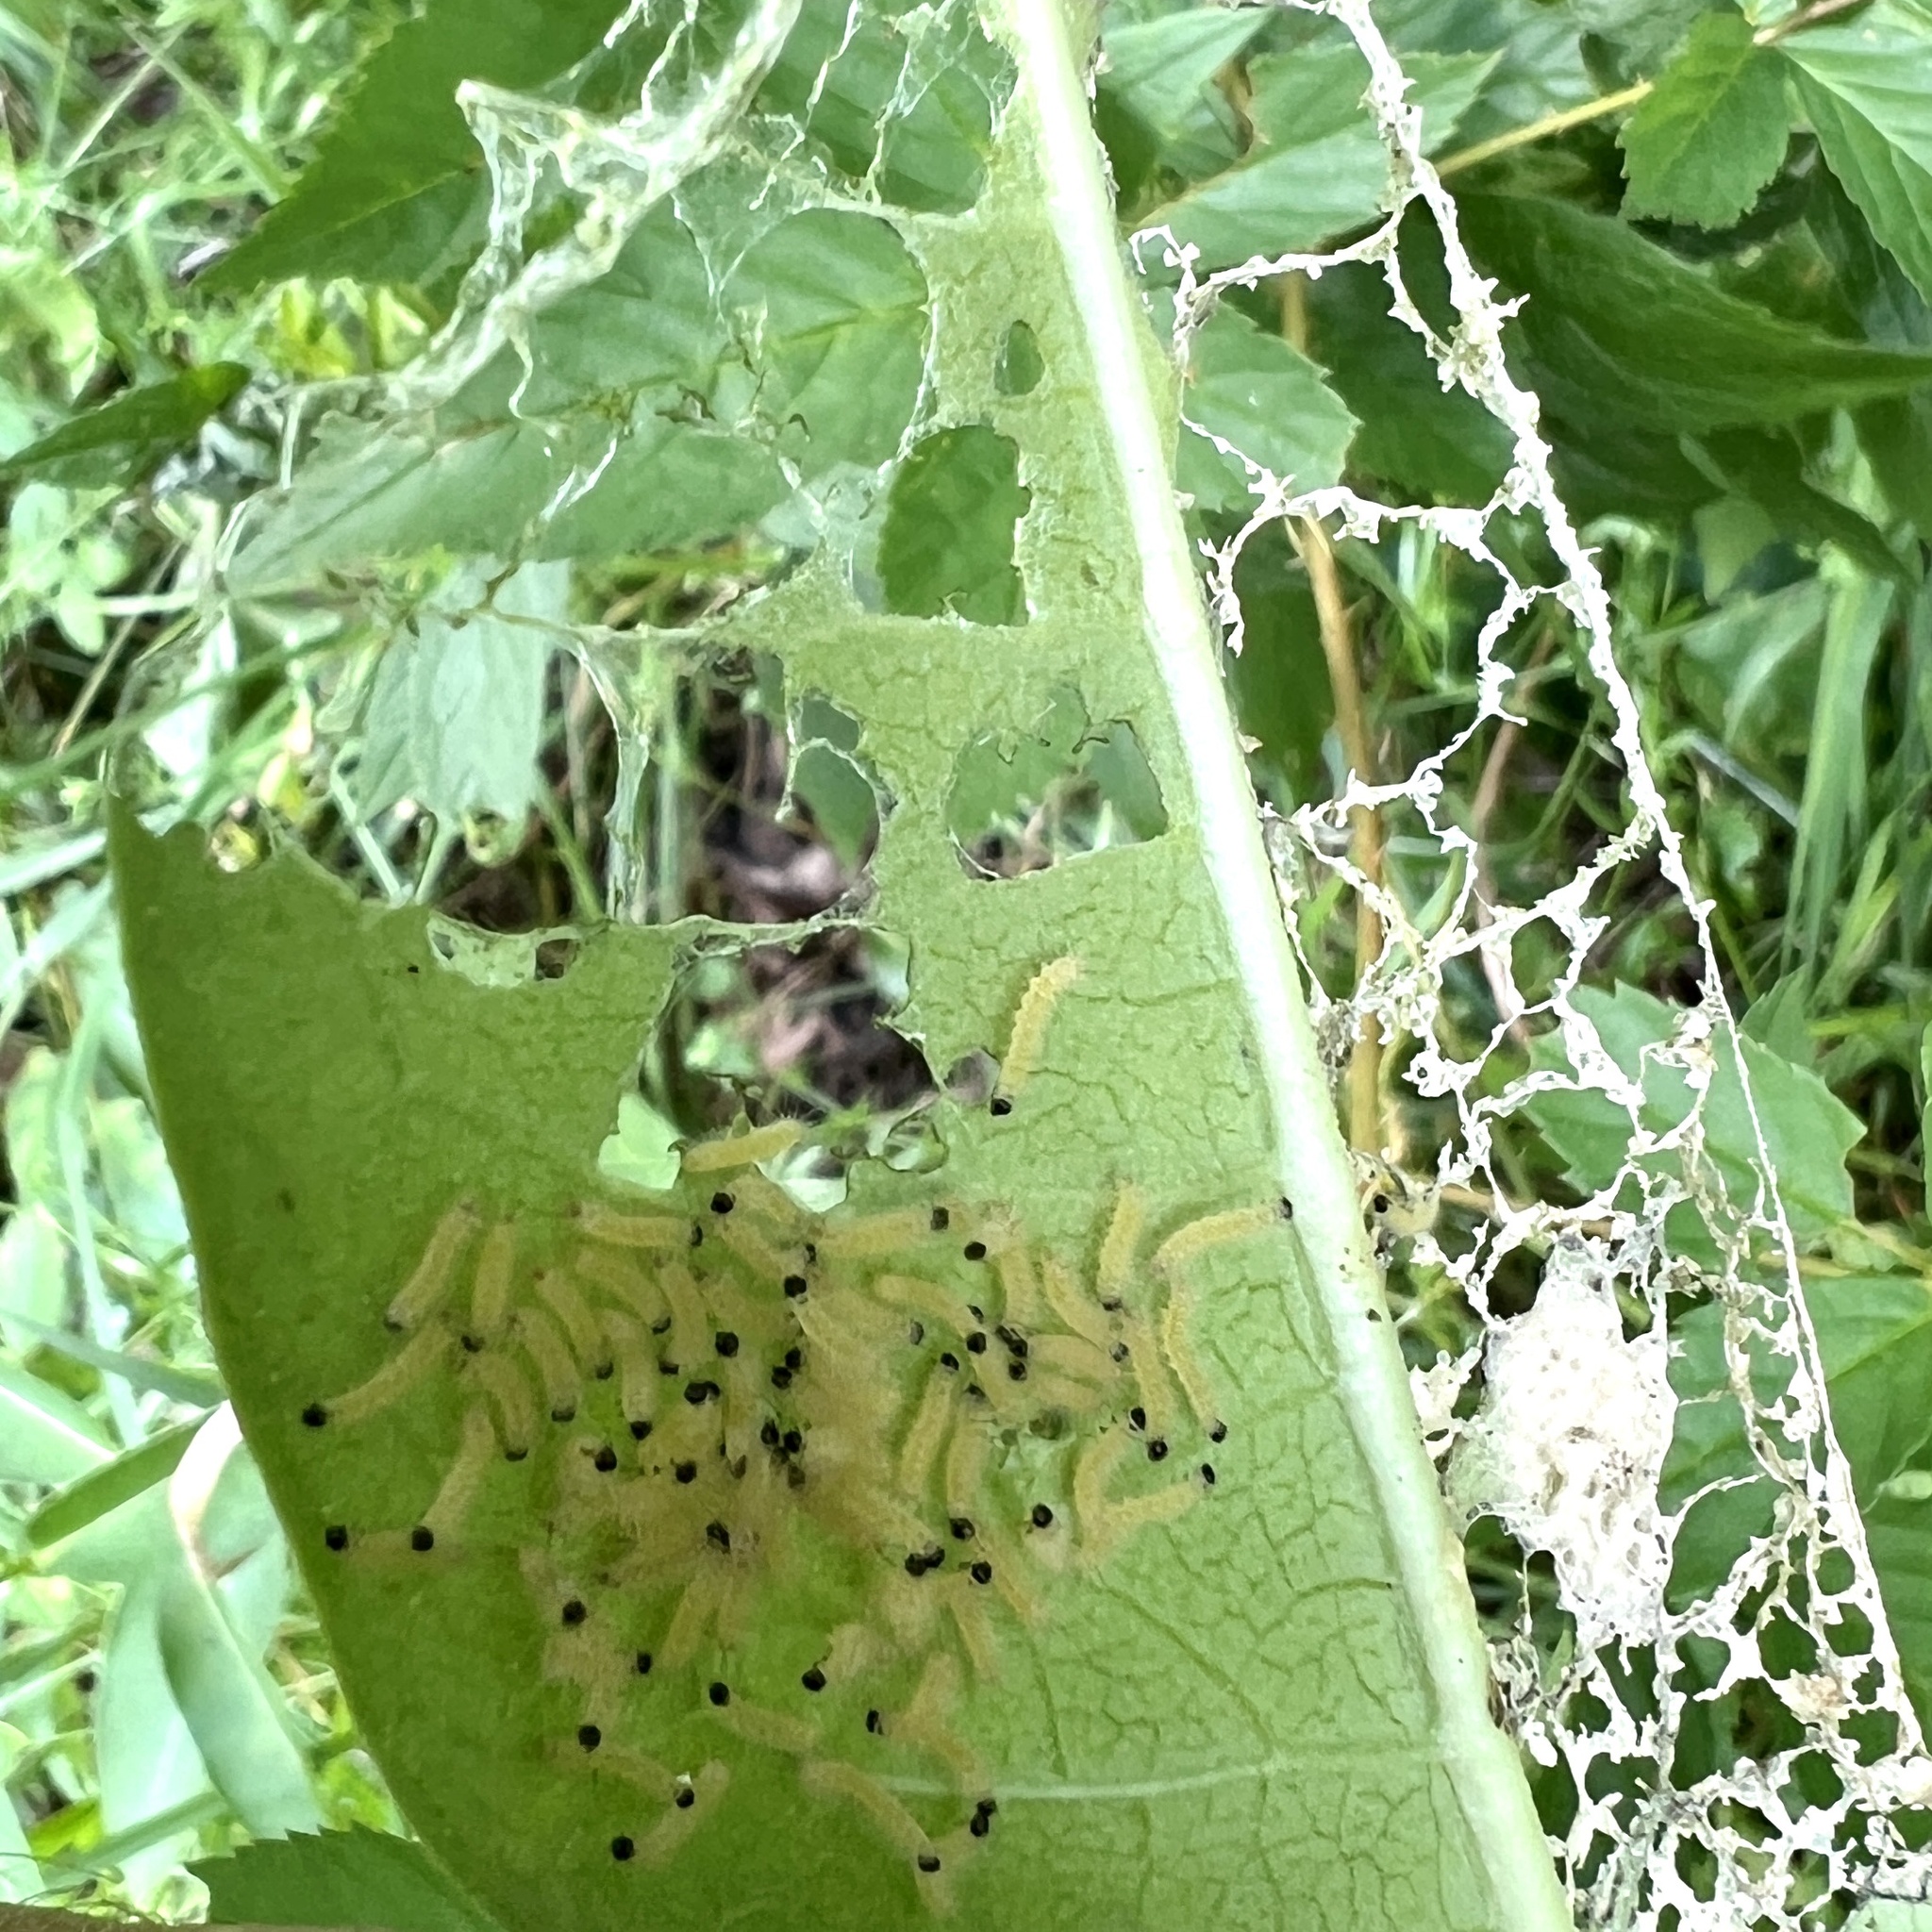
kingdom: Animalia
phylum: Arthropoda
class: Insecta
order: Lepidoptera
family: Erebidae
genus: Euchaetes
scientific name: Euchaetes egle
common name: Milkweed tussock moth
